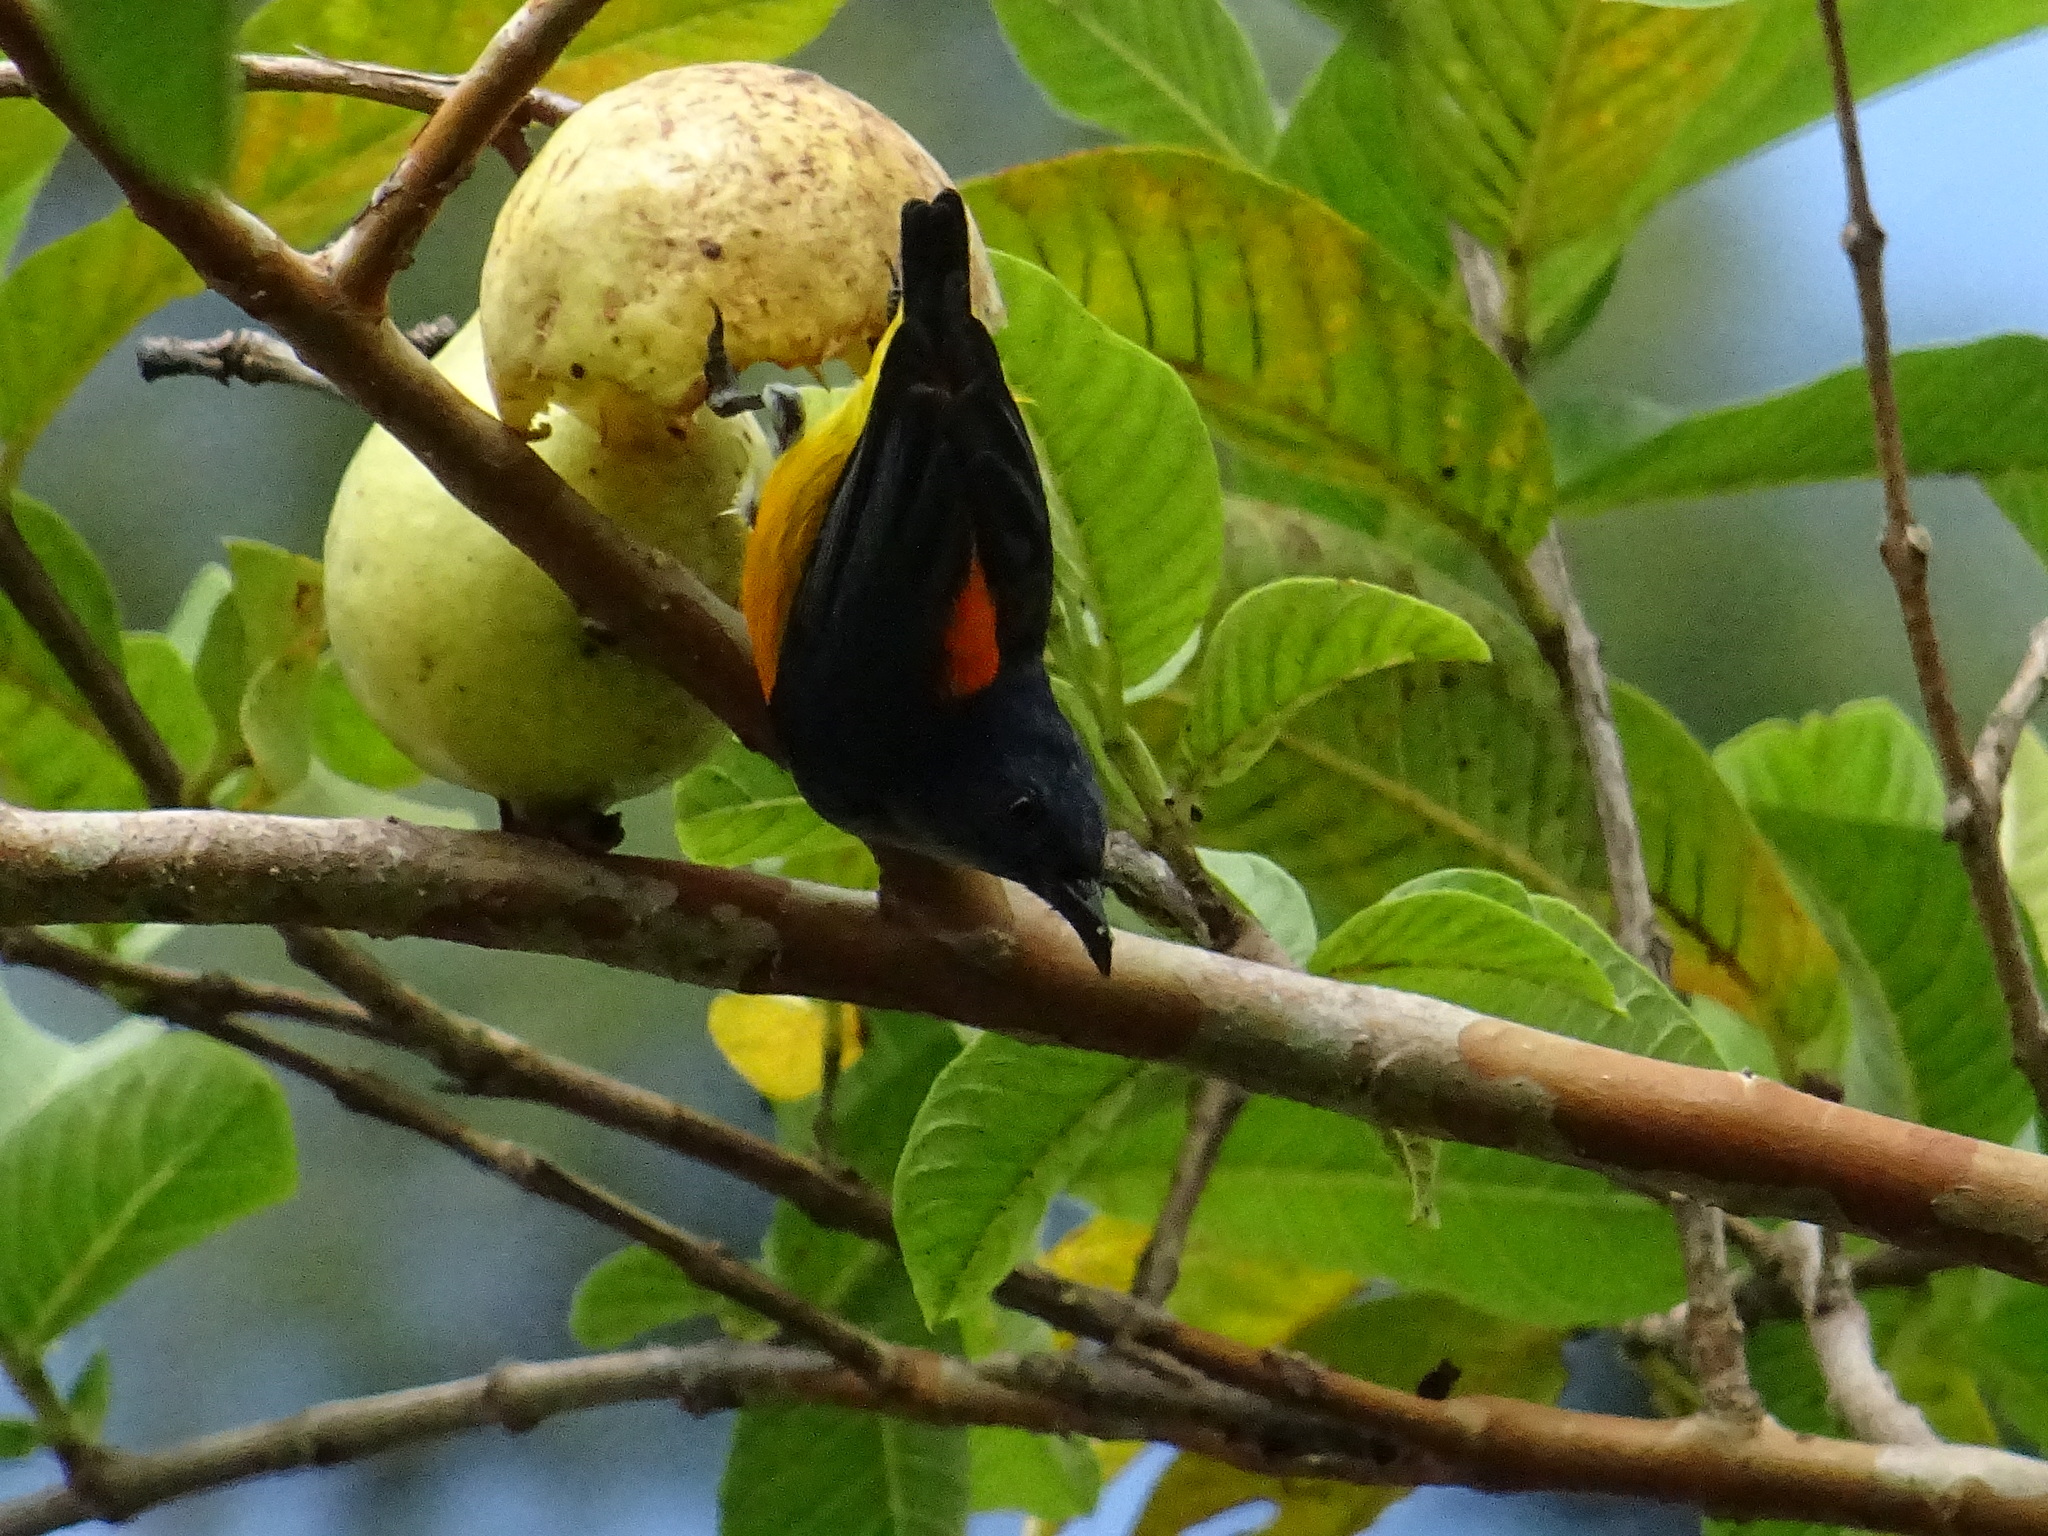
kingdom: Animalia
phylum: Chordata
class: Aves
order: Passeriformes
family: Dicaeidae
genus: Dicaeum
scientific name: Dicaeum trigonostigma
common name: Orange-bellied flowerpecker
